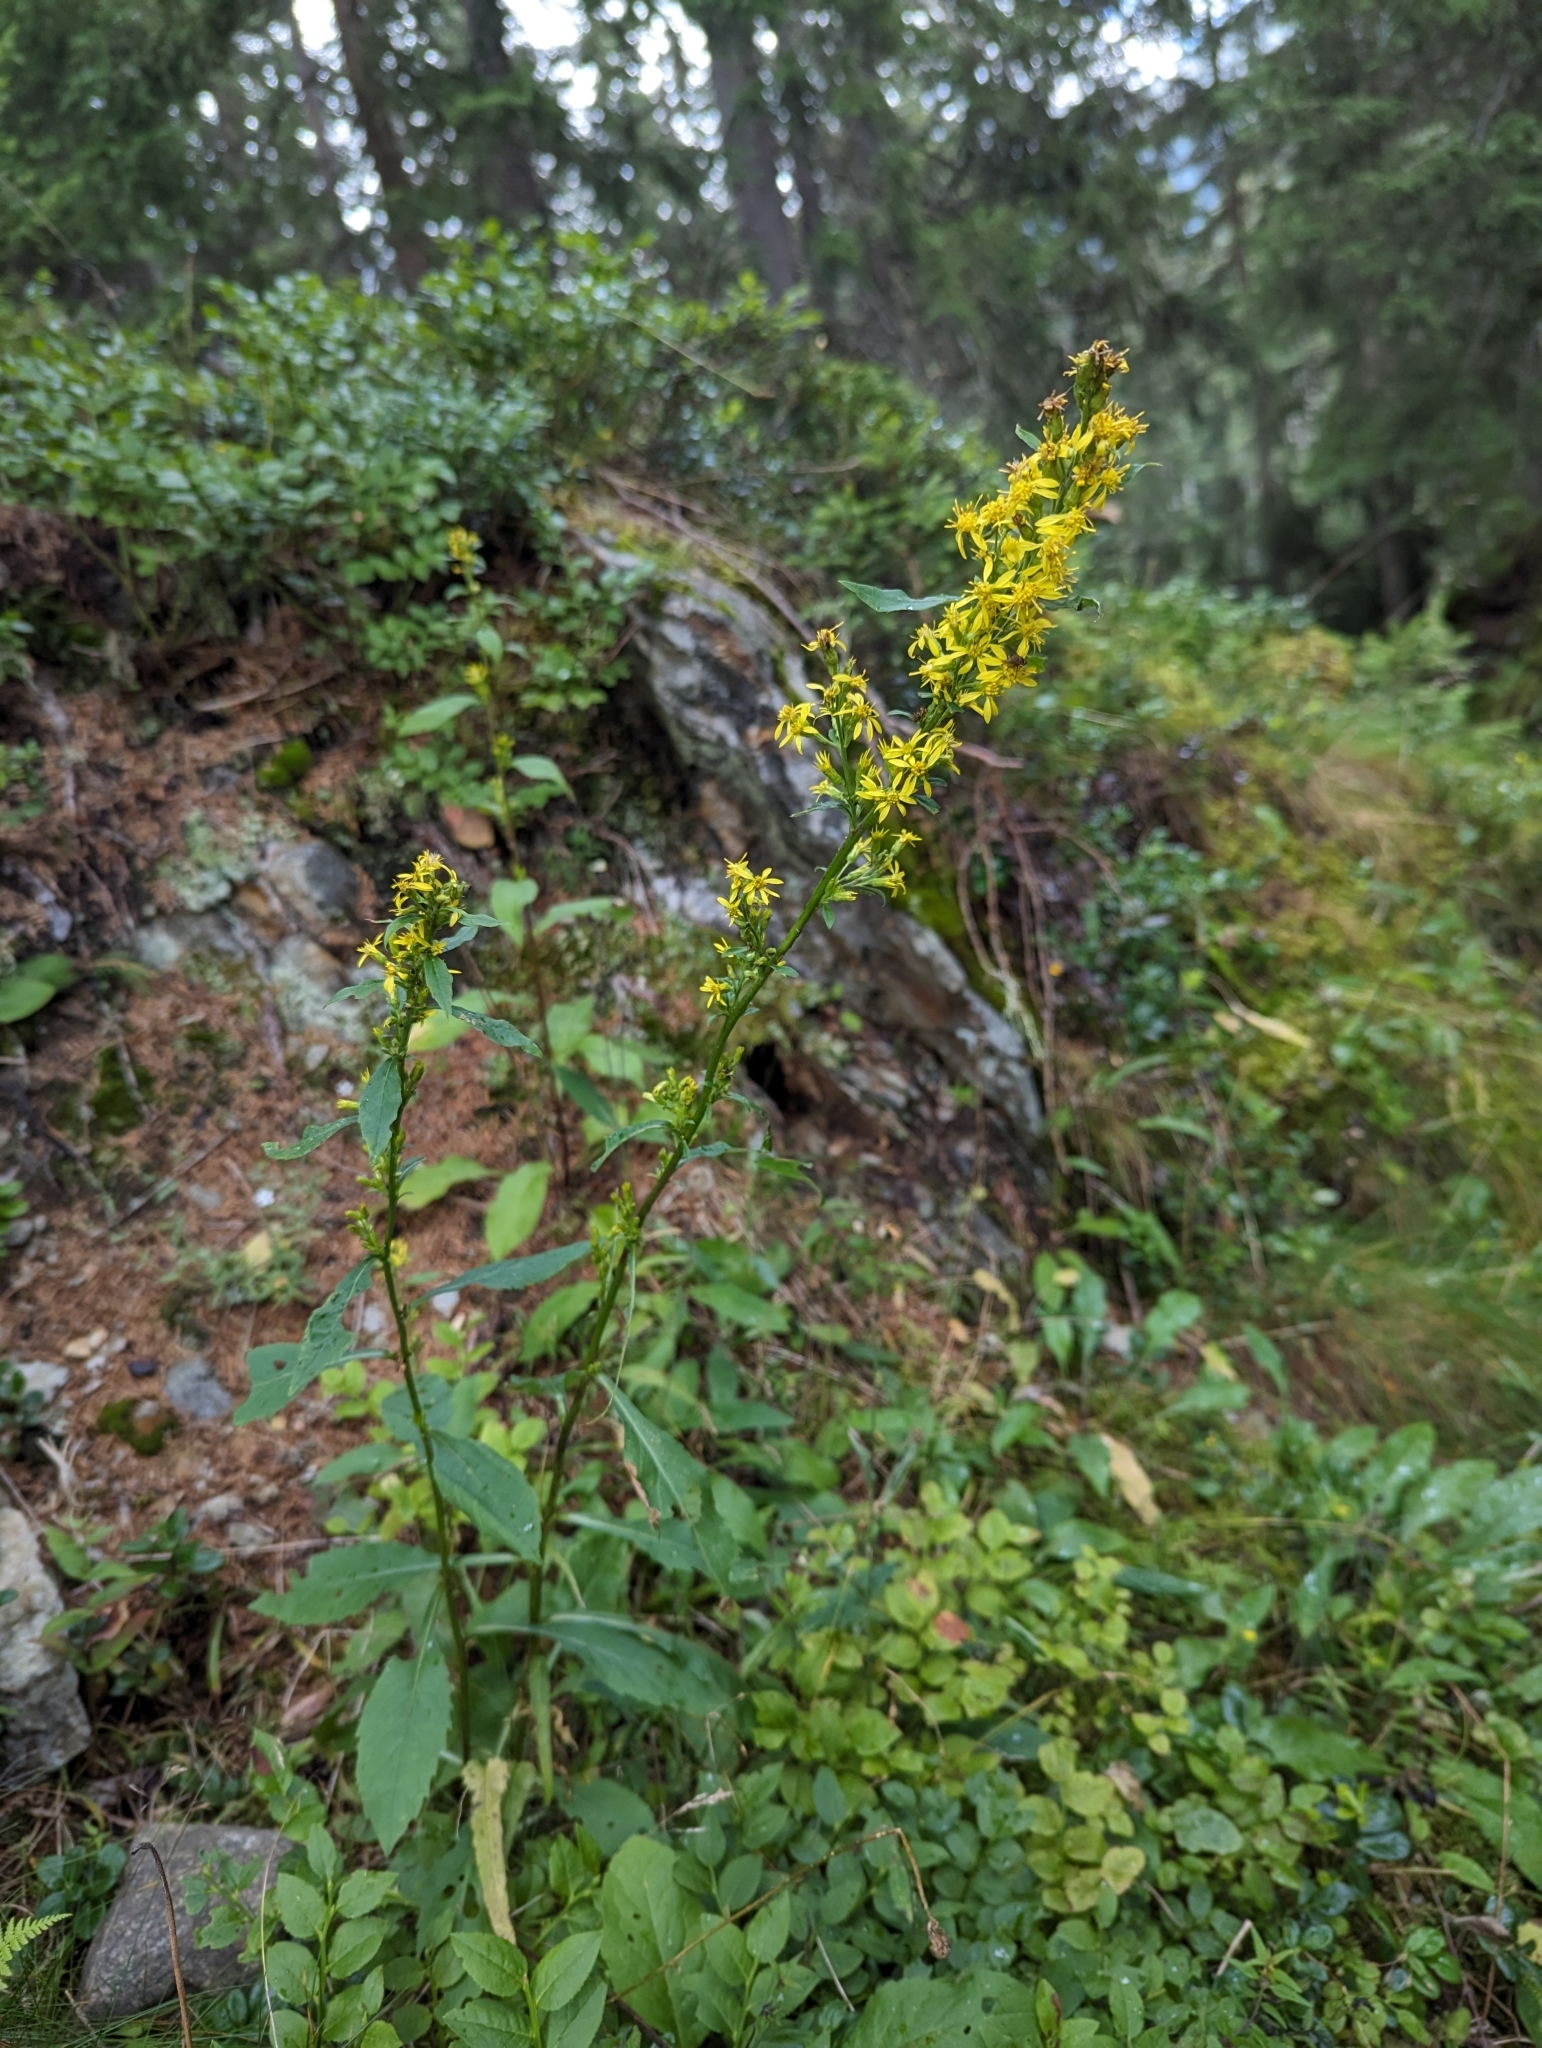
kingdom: Plantae
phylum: Tracheophyta
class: Magnoliopsida
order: Asterales
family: Asteraceae
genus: Solidago
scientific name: Solidago virgaurea
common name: Goldenrod
